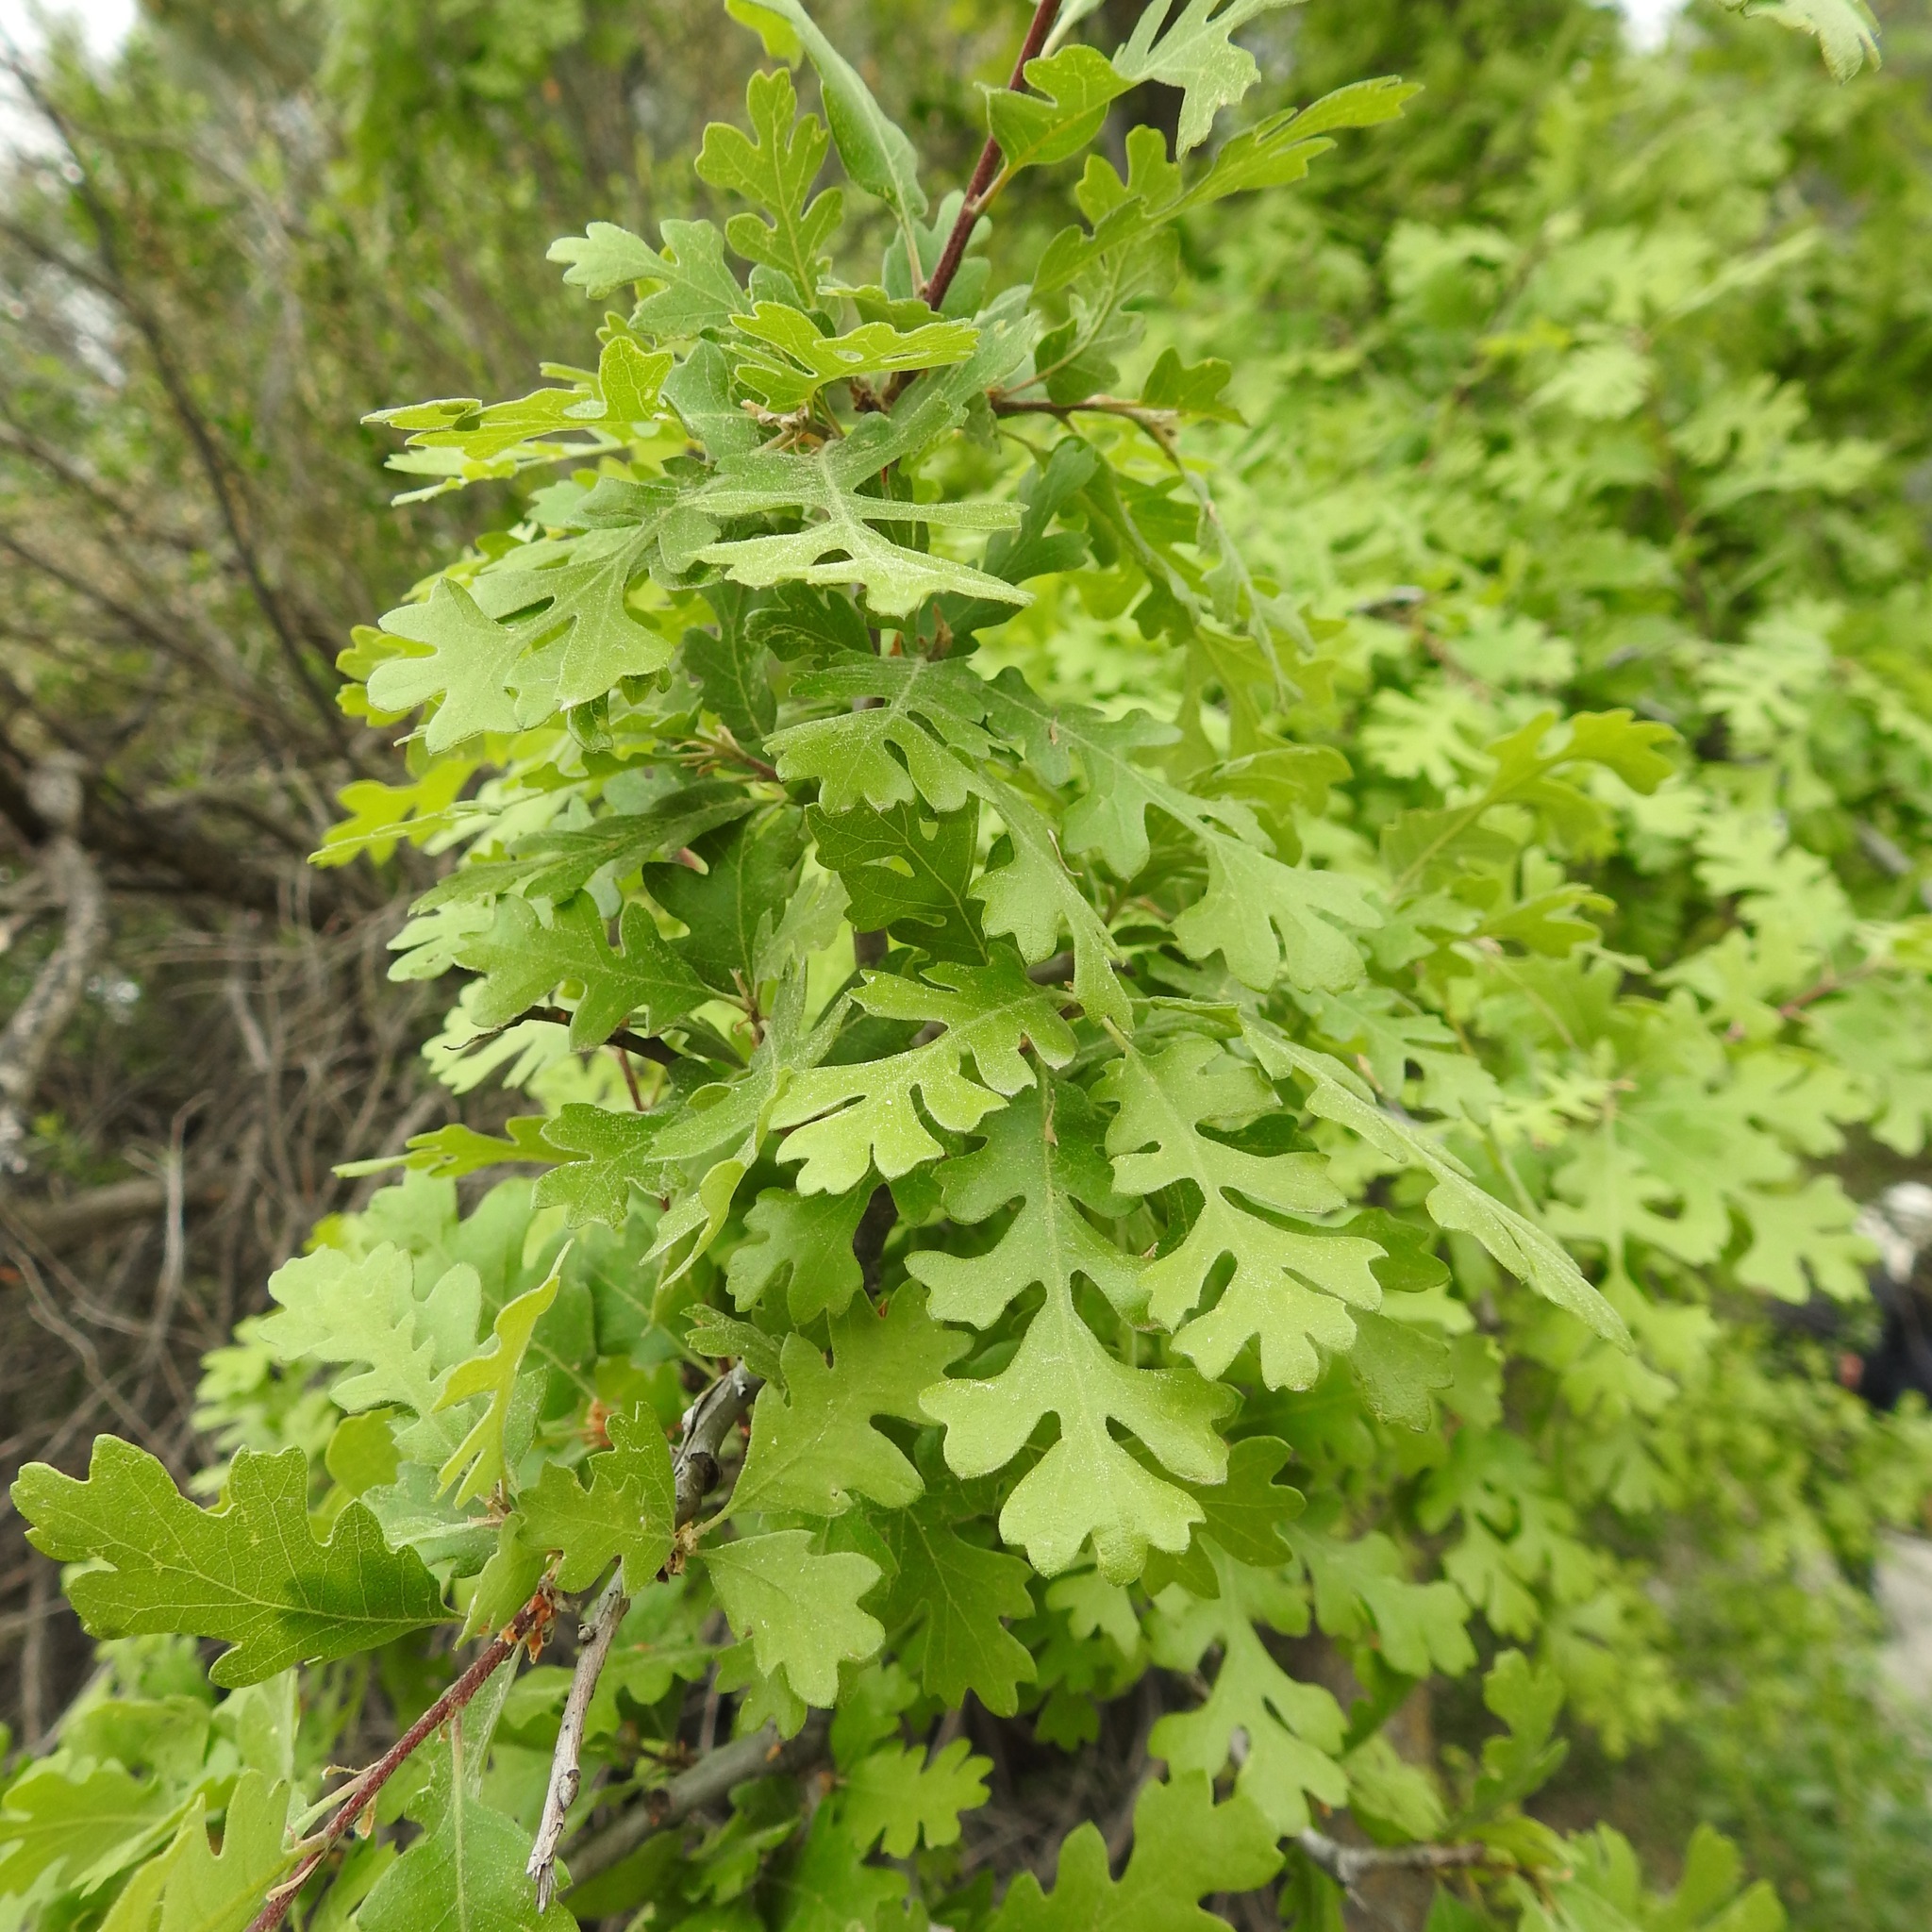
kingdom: Plantae
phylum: Tracheophyta
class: Magnoliopsida
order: Fagales
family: Fagaceae
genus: Quercus
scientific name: Quercus lobata
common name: Valley oak
